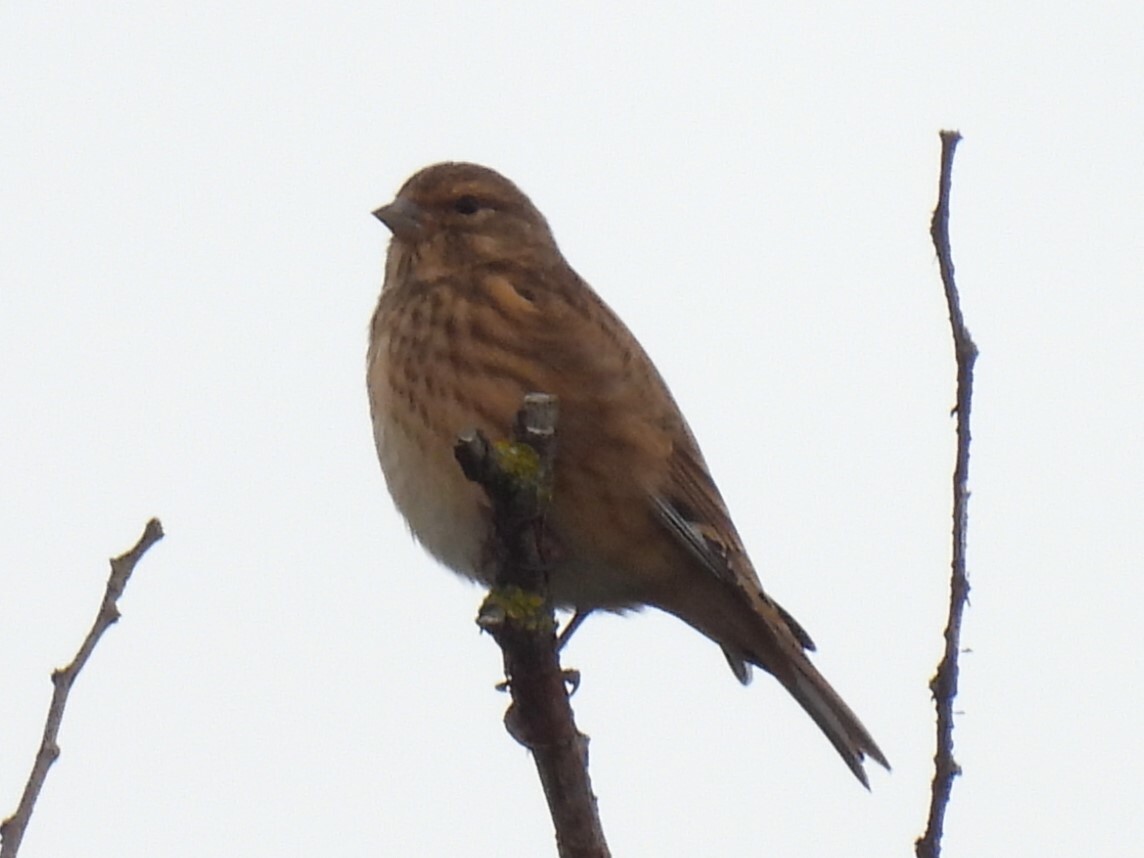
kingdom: Animalia
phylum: Chordata
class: Aves
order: Passeriformes
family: Fringillidae
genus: Linaria
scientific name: Linaria cannabina
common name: Common linnet
